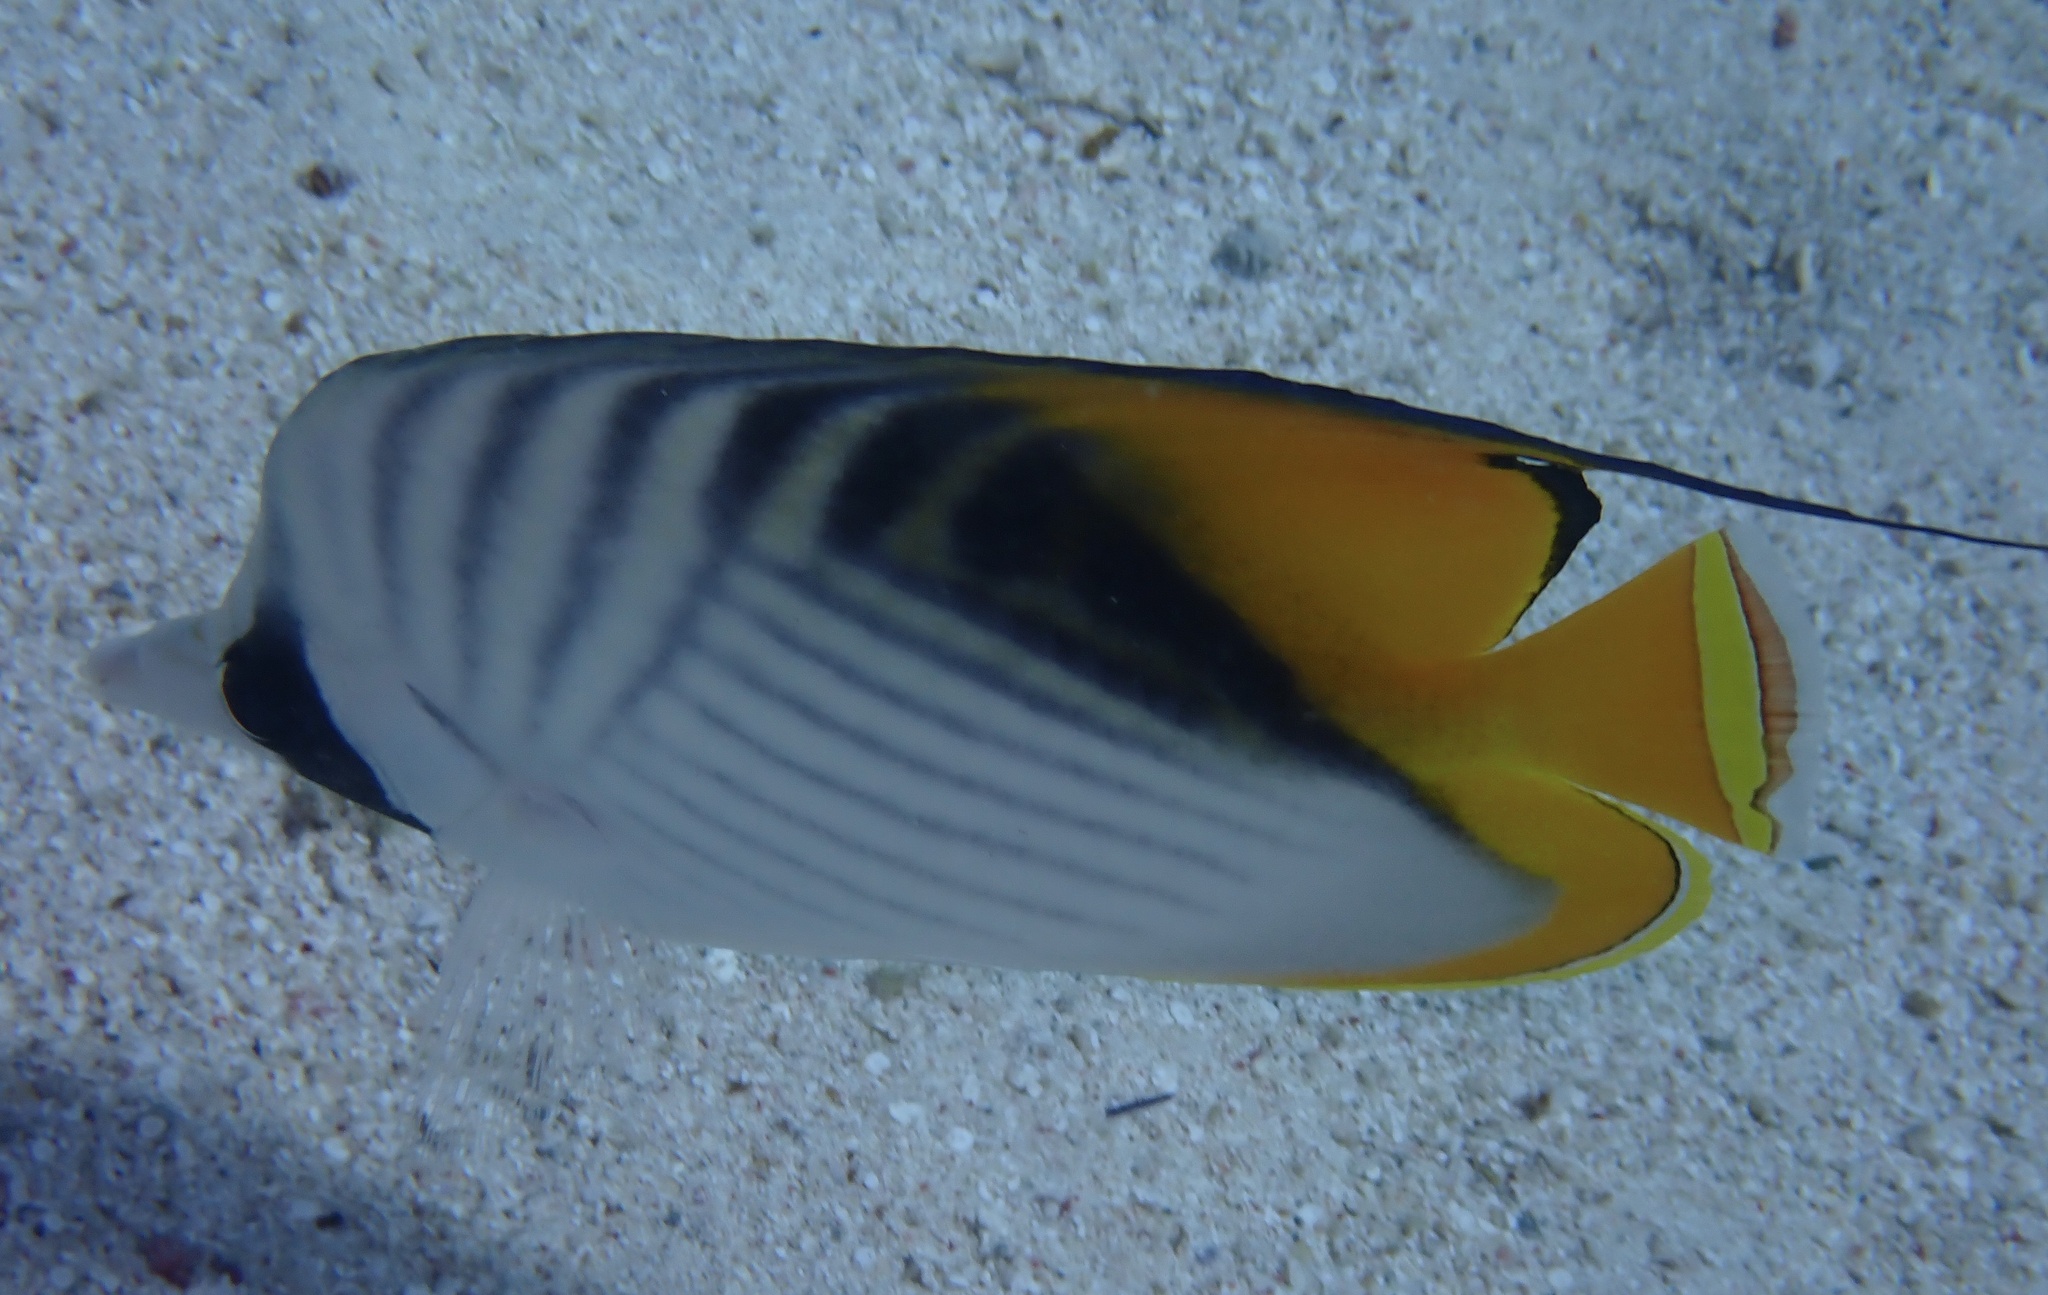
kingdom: Animalia
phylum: Chordata
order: Perciformes
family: Chaetodontidae
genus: Chaetodon
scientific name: Chaetodon auriga
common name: Threadfin butterflyfish
